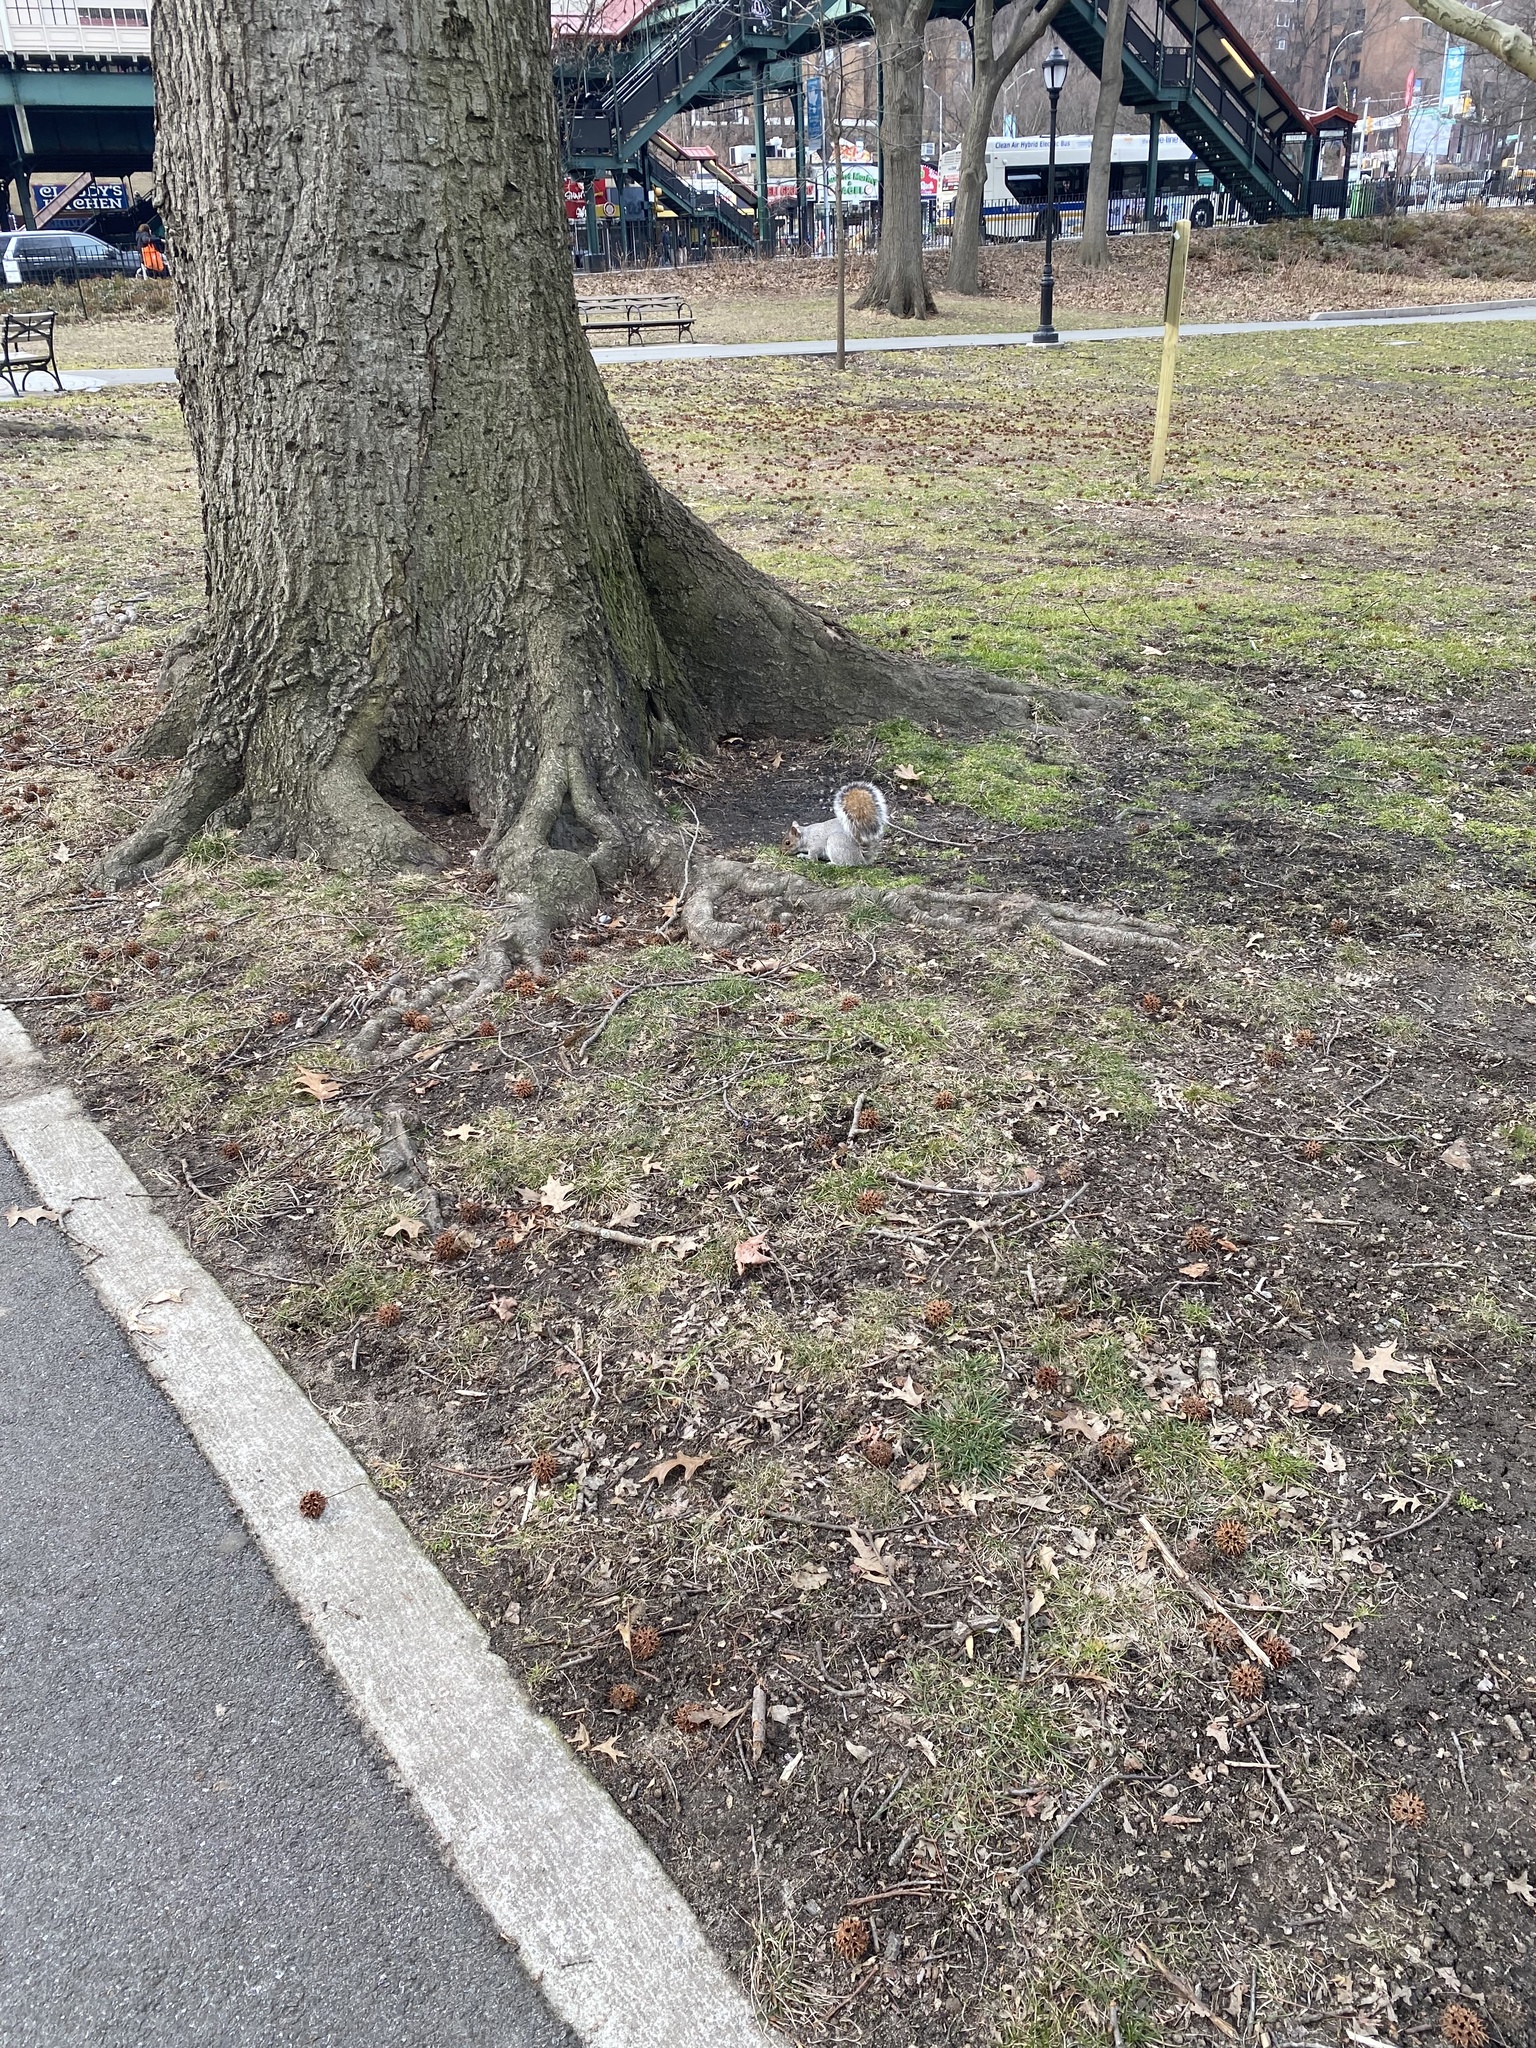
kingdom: Animalia
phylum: Chordata
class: Mammalia
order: Rodentia
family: Sciuridae
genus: Sciurus
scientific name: Sciurus carolinensis
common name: Eastern gray squirrel
